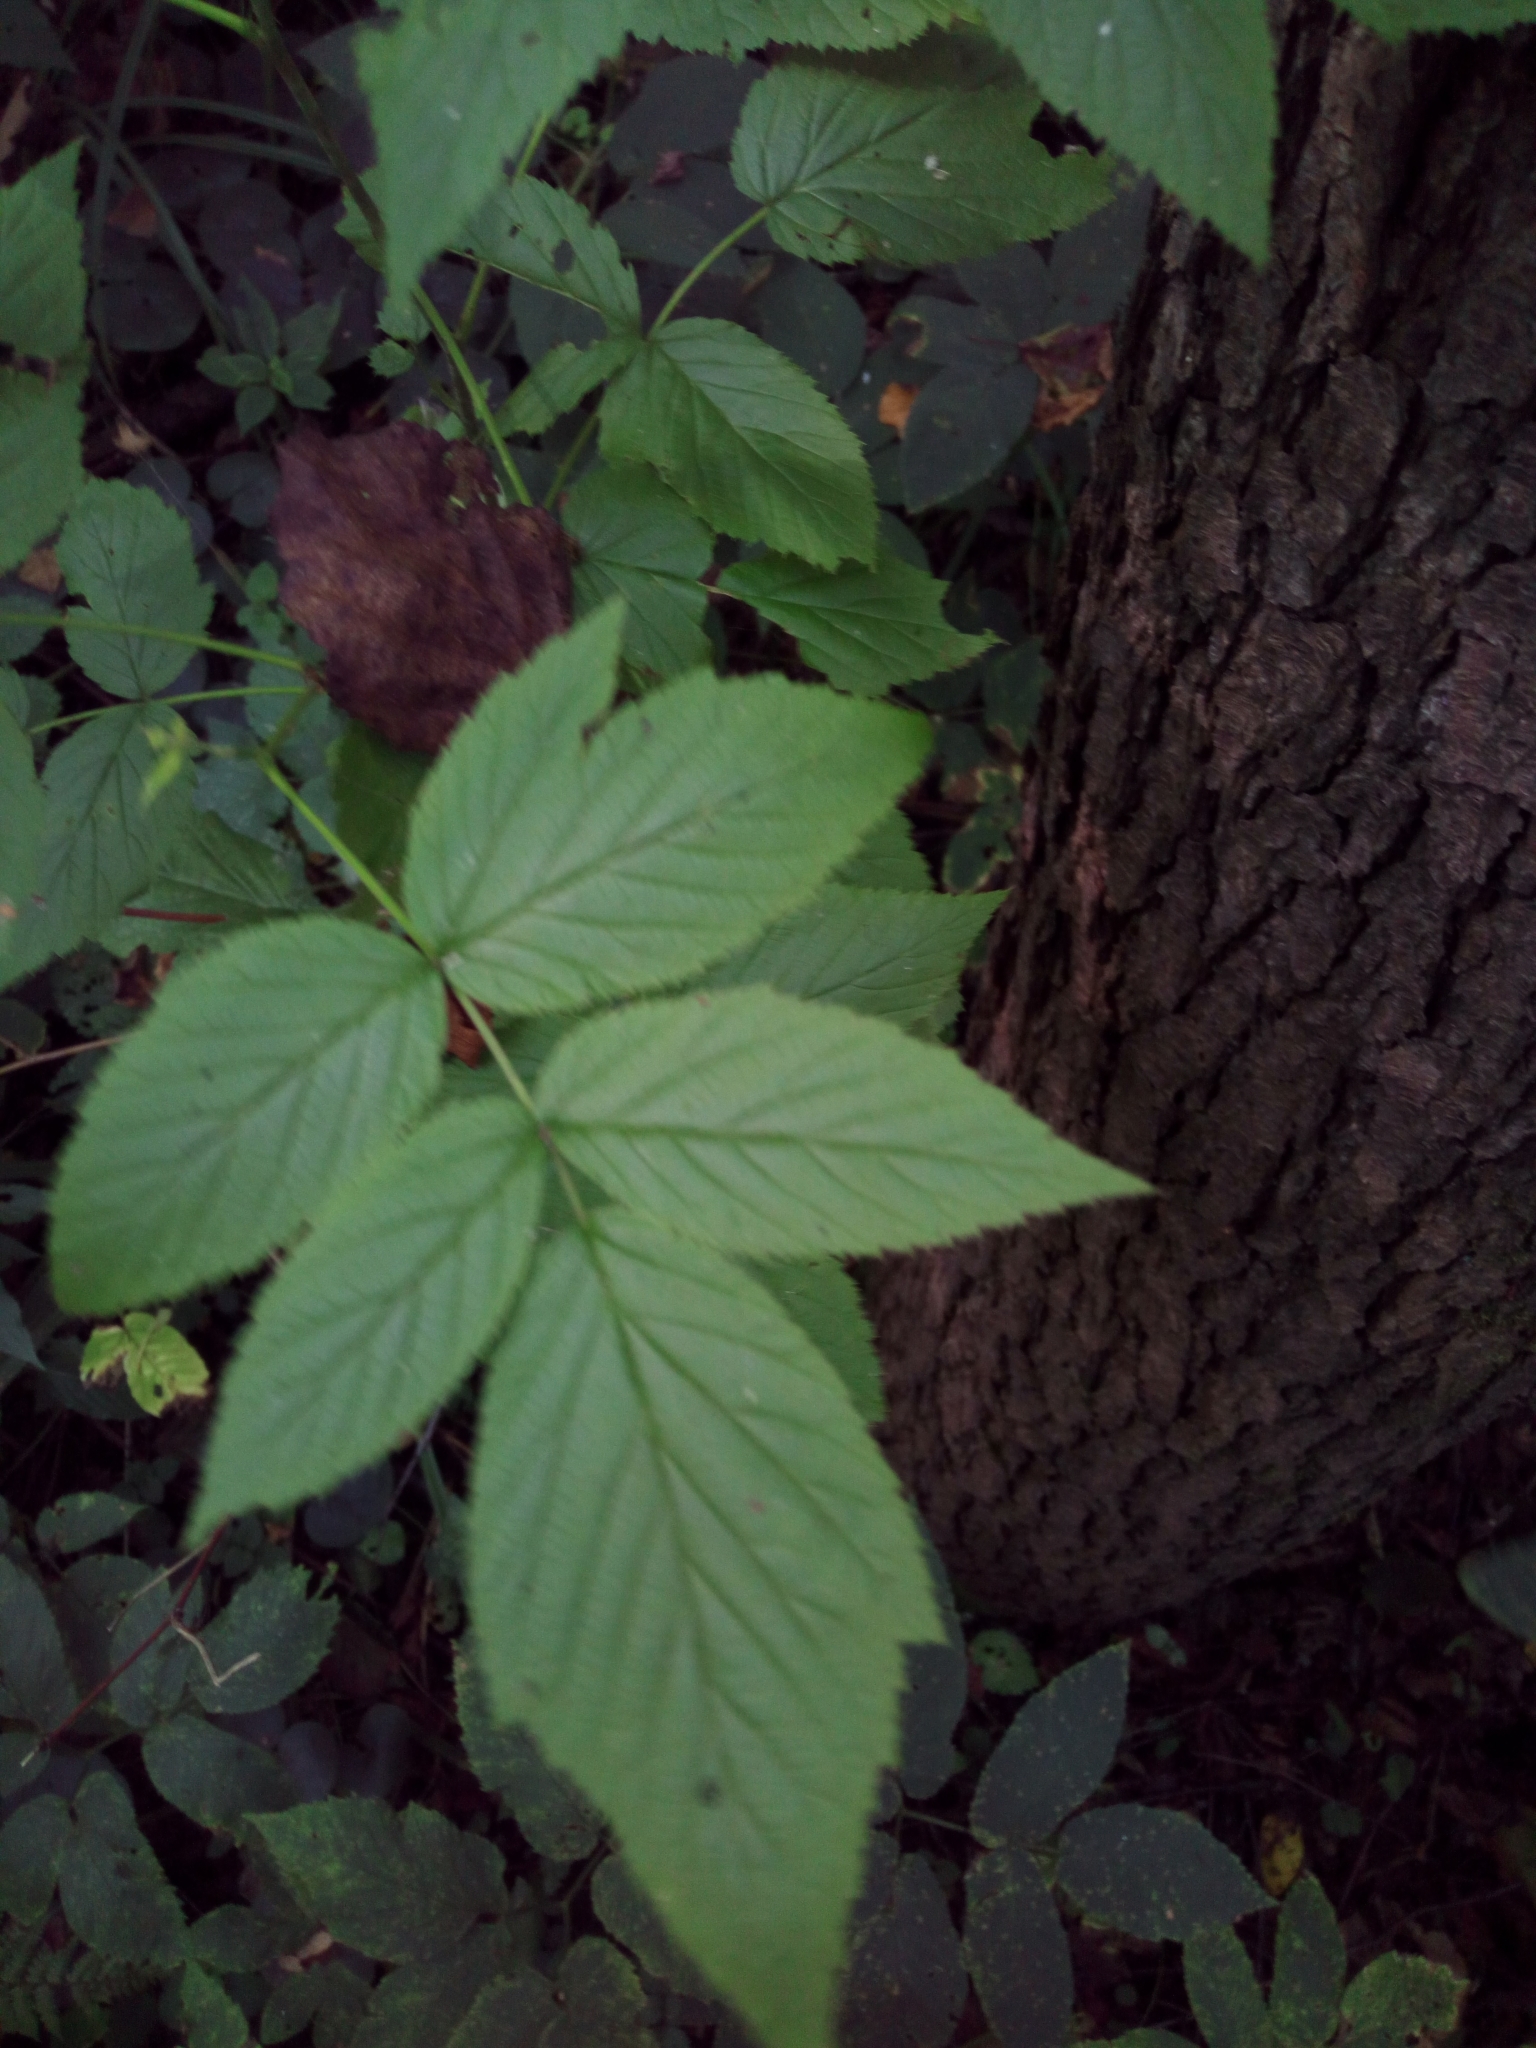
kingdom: Plantae
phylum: Tracheophyta
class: Magnoliopsida
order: Rosales
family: Rosaceae
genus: Rubus
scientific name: Rubus idaeus
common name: Raspberry
